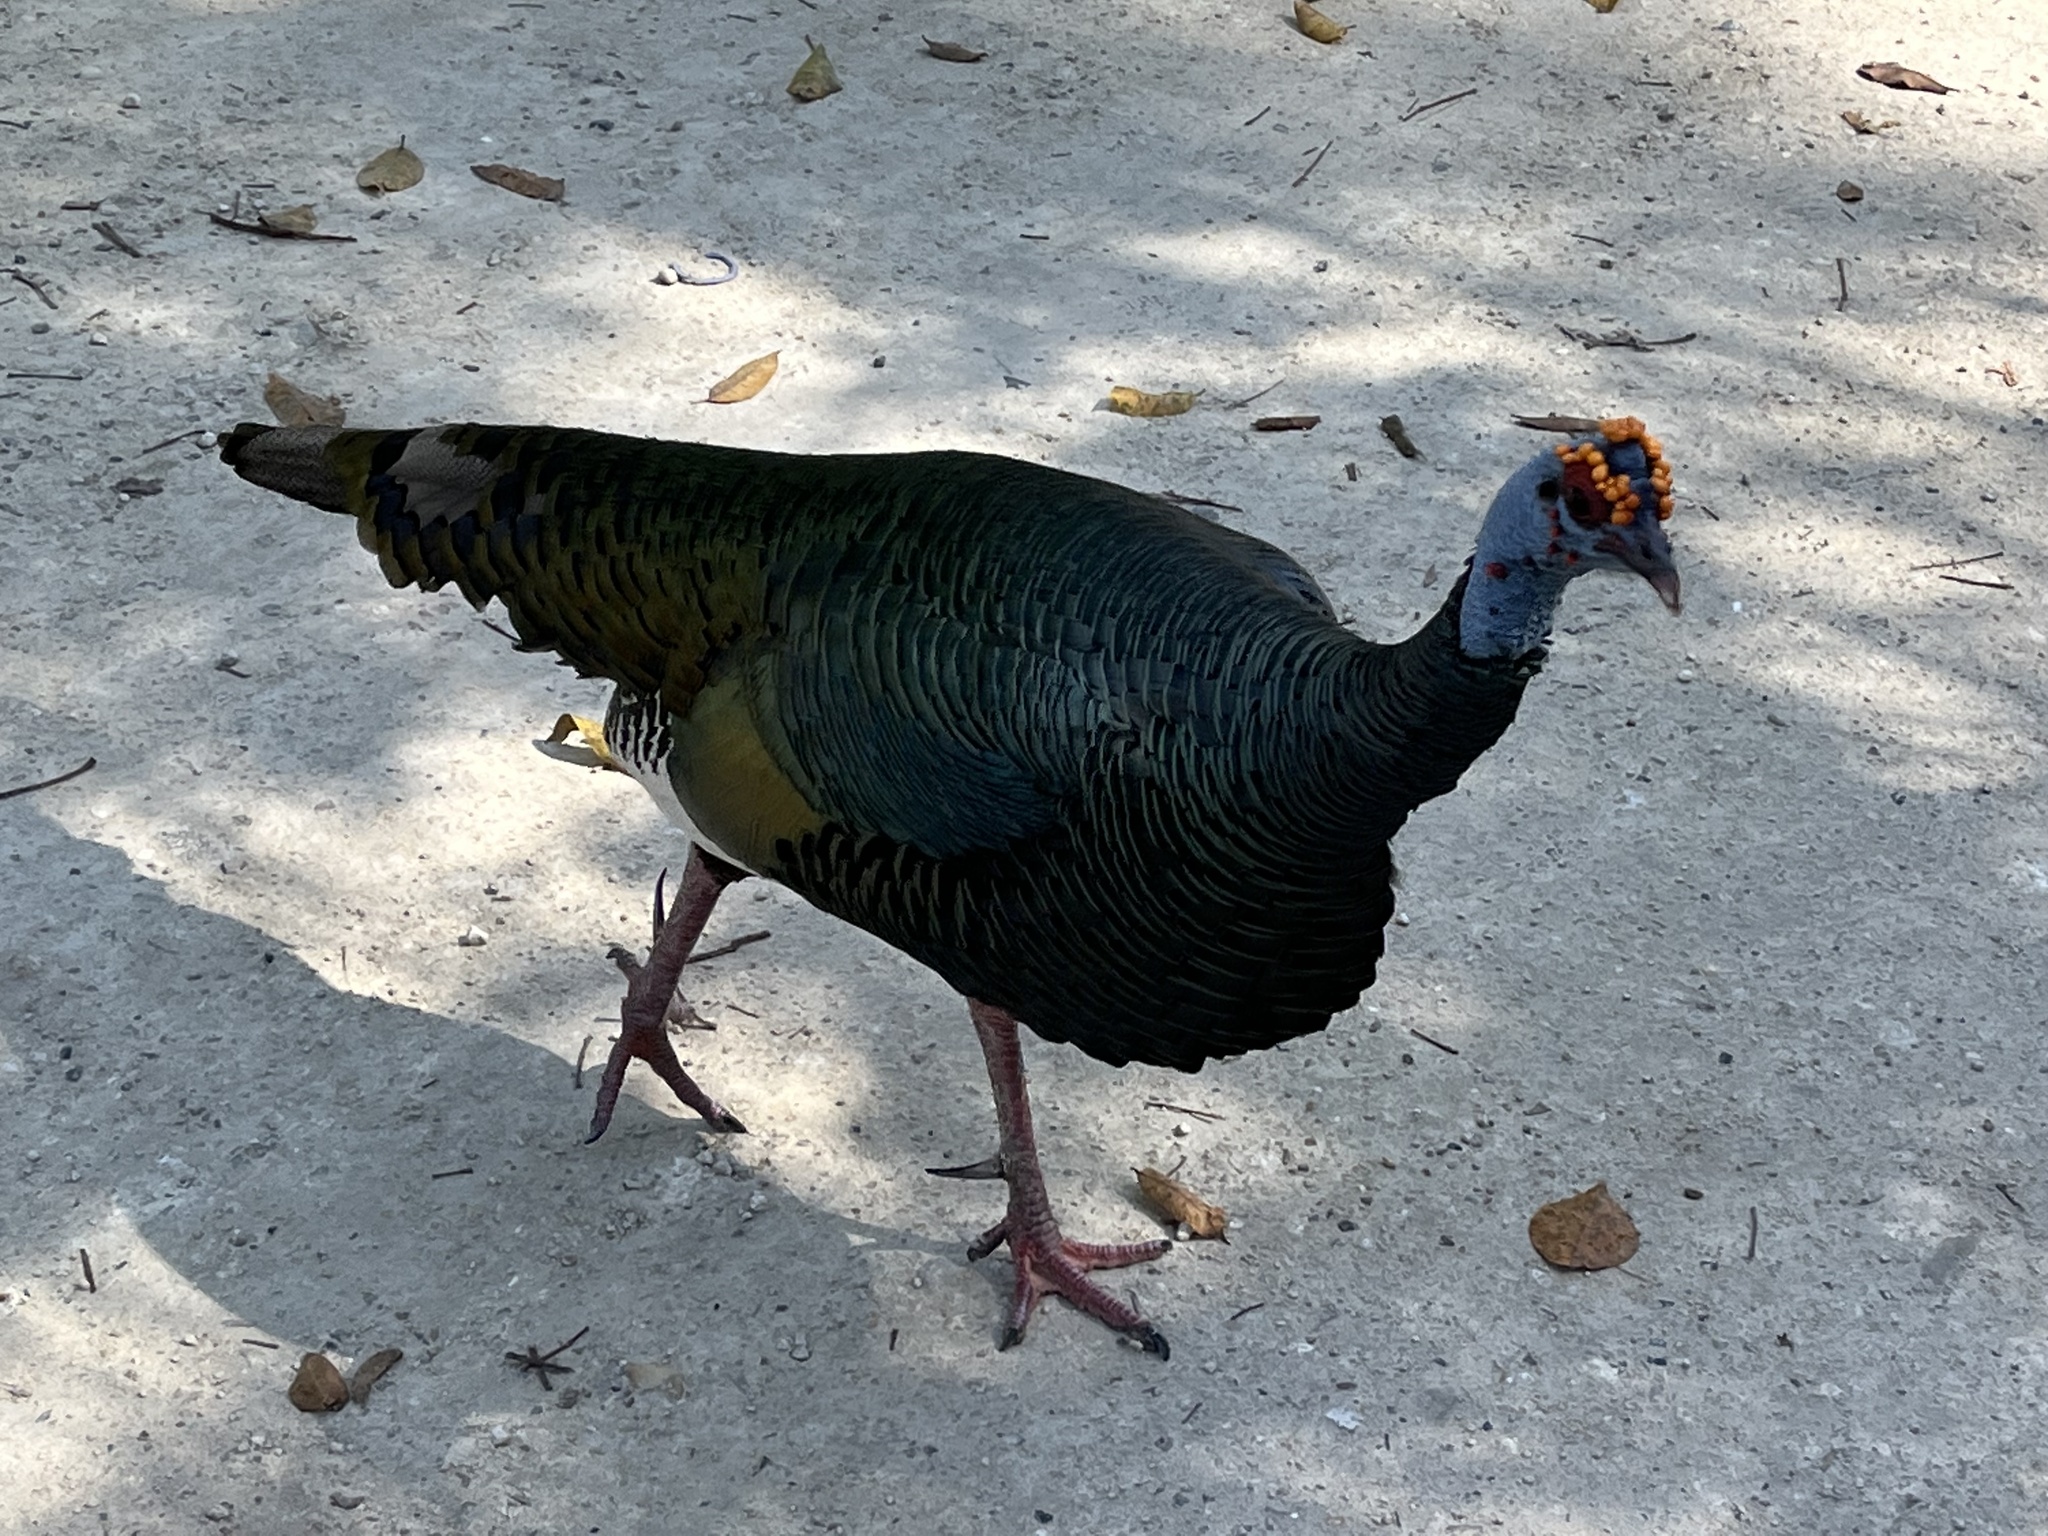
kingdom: Animalia
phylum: Chordata
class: Aves
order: Galliformes
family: Phasianidae
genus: Meleagris
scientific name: Meleagris ocellata
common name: Ocellated turkey
